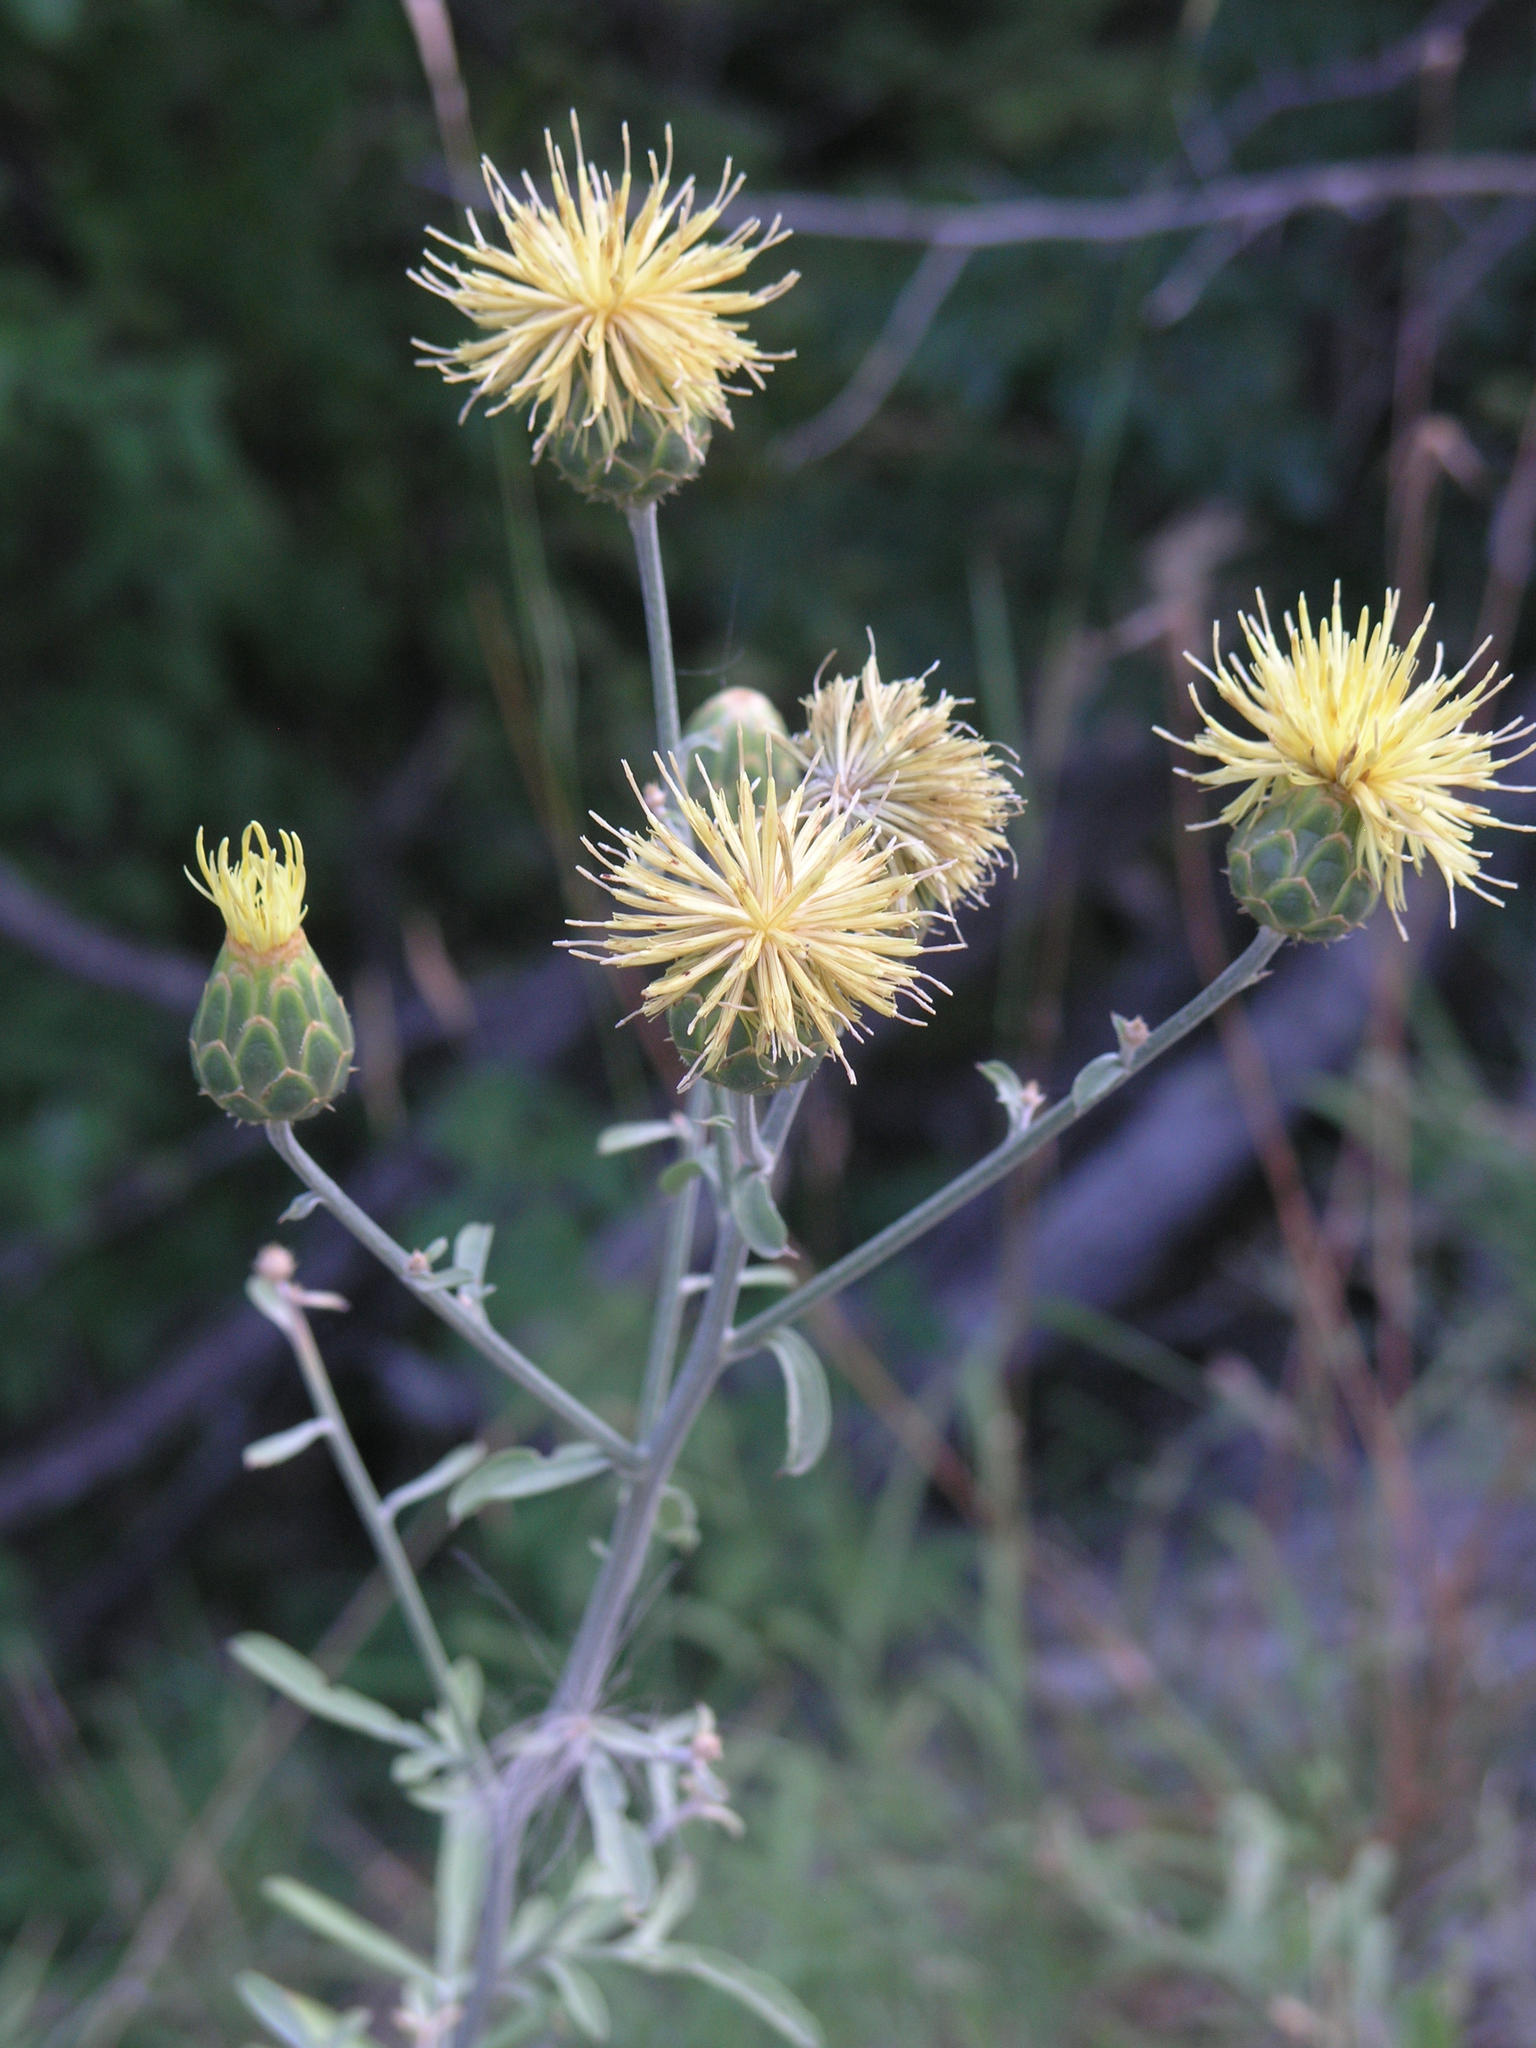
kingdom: Plantae
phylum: Tracheophyta
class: Magnoliopsida
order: Asterales
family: Asteraceae
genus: Centaurea
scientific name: Centaurea salonitana
